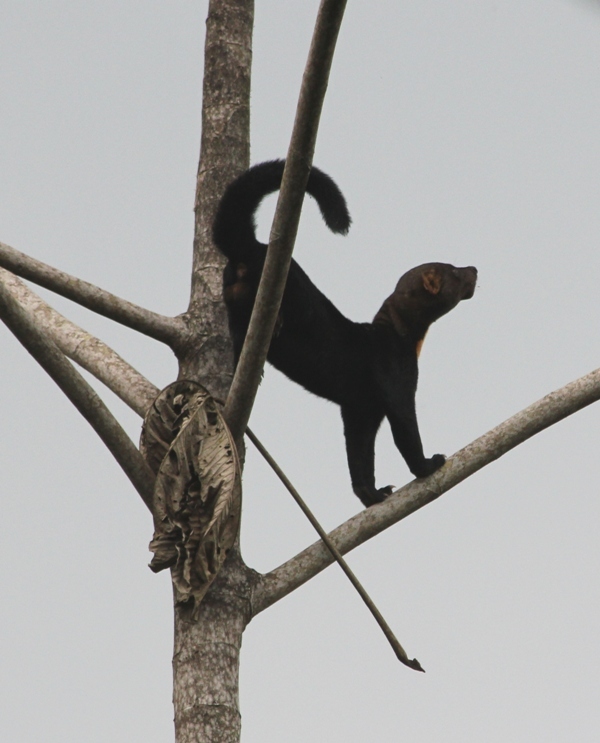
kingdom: Animalia
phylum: Chordata
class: Mammalia
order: Carnivora
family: Mustelidae
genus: Eira
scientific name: Eira barbara
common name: Tayra
